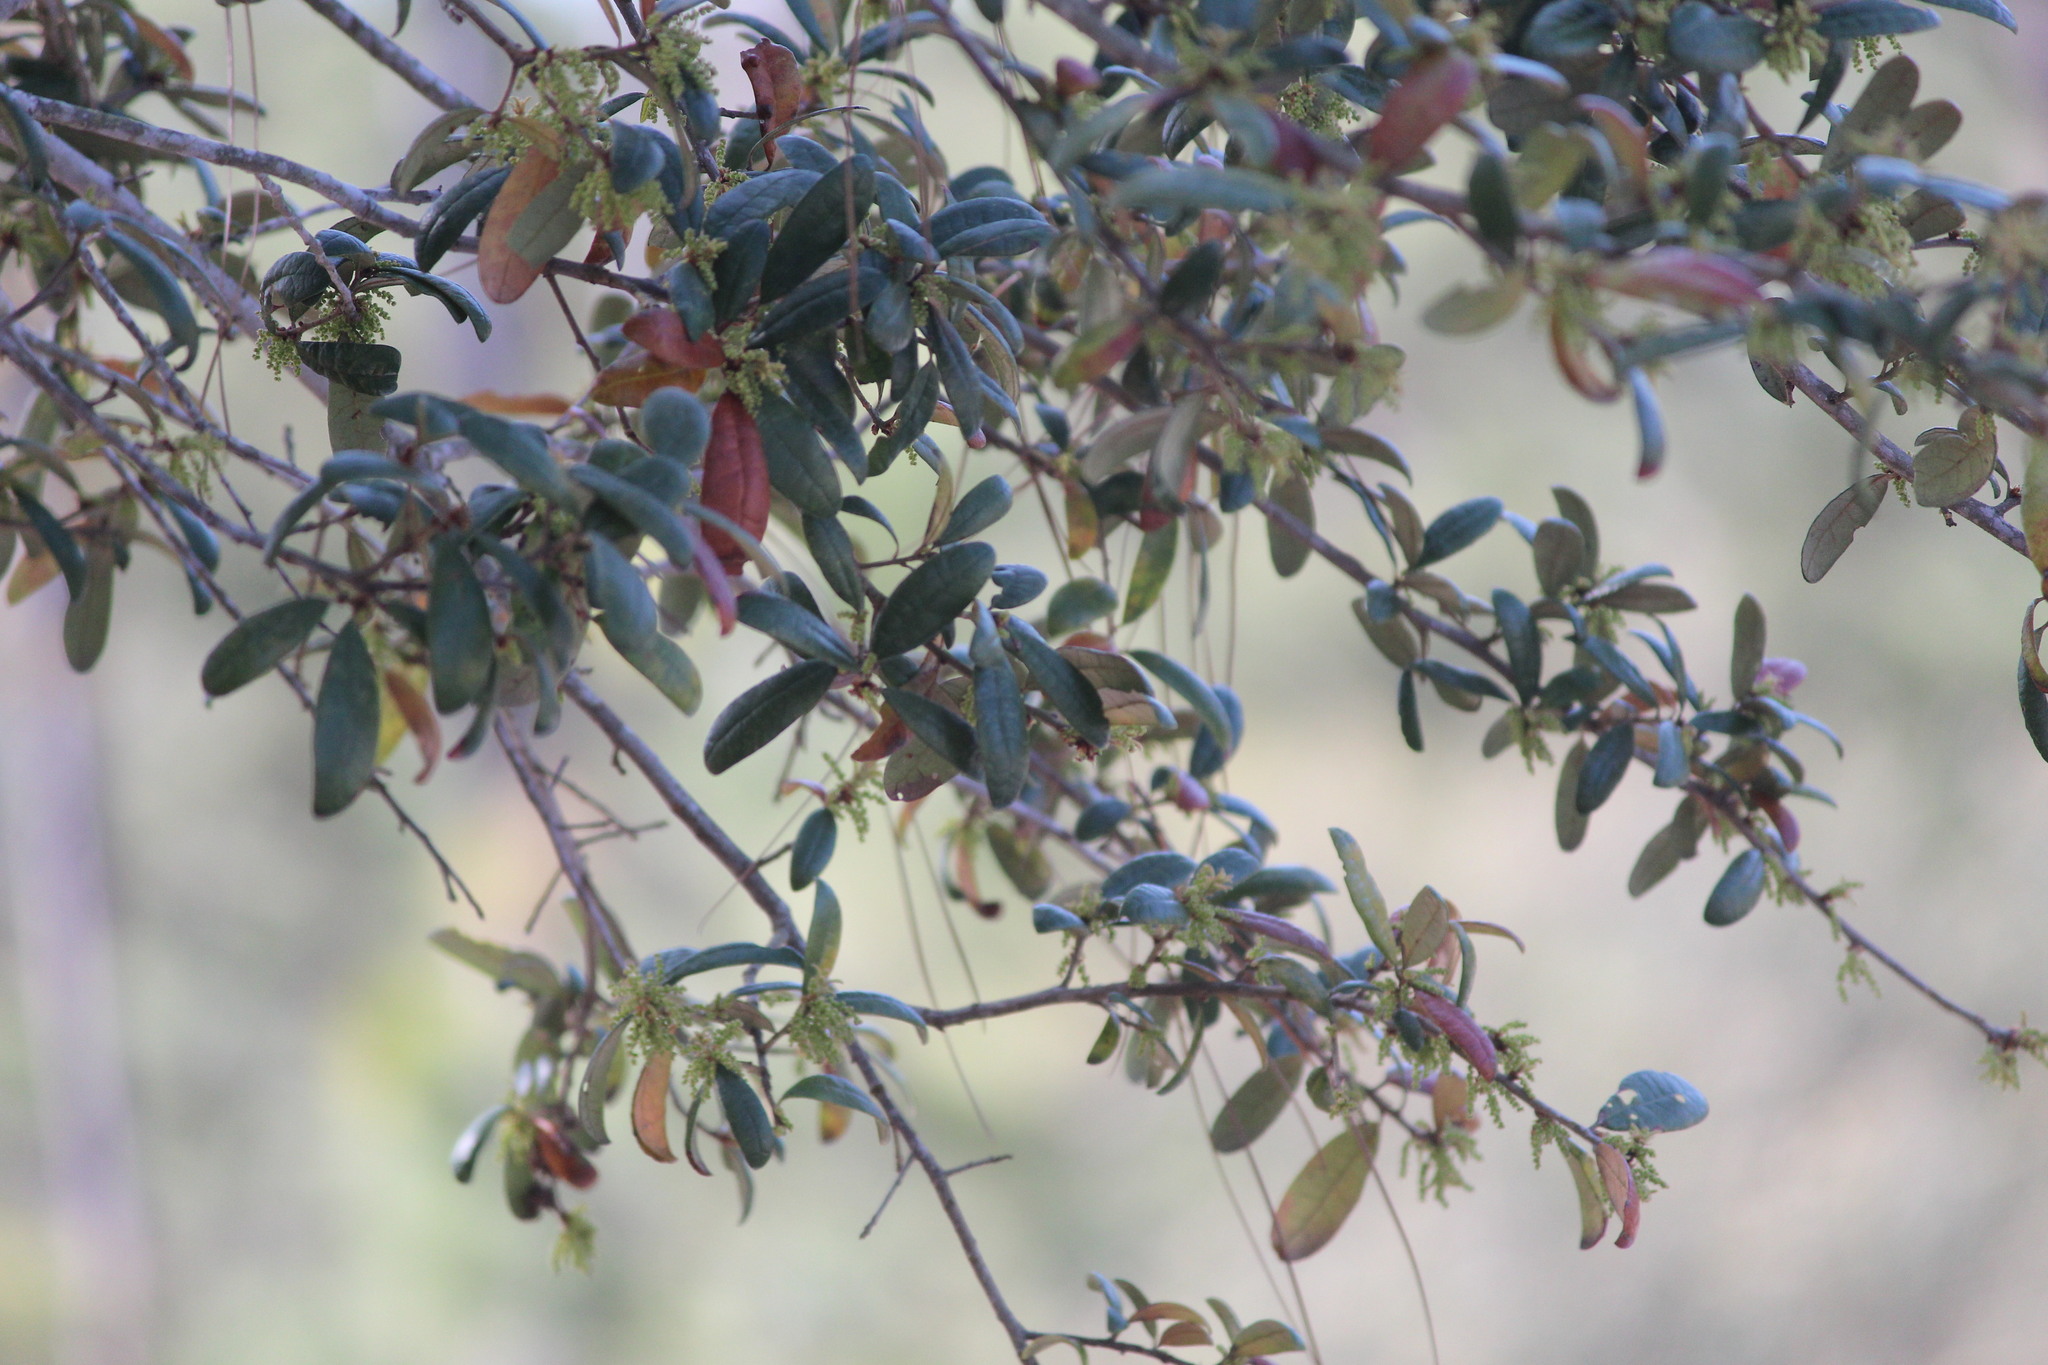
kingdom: Plantae
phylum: Tracheophyta
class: Magnoliopsida
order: Fagales
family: Fagaceae
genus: Quercus
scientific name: Quercus geminata
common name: Sand live oak
